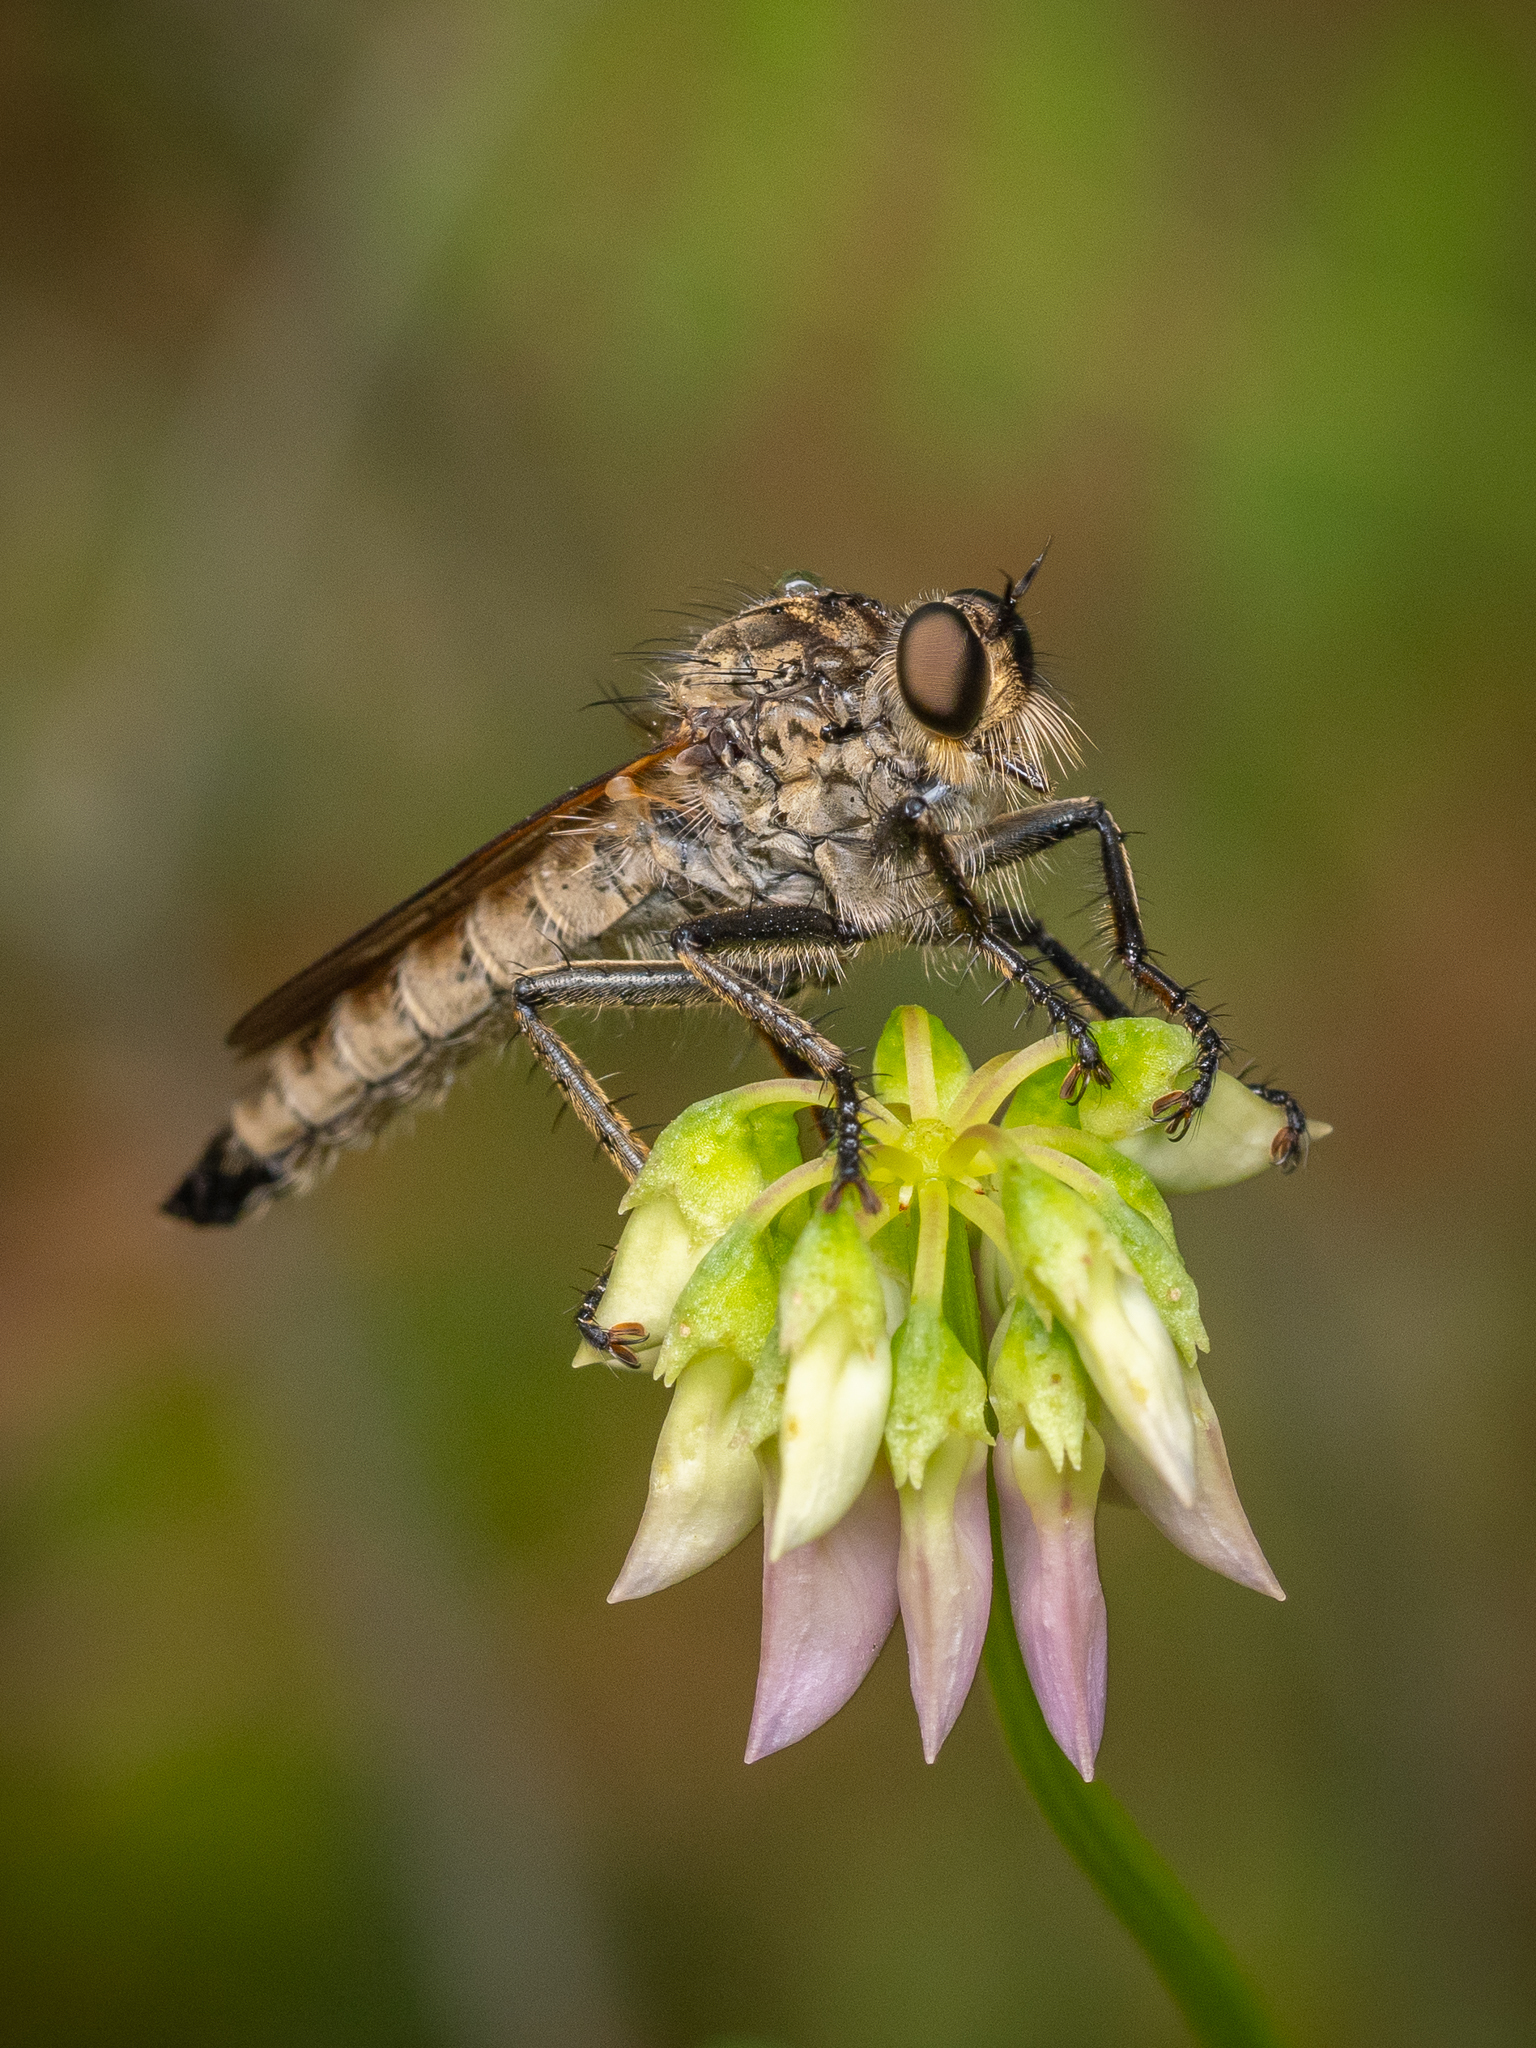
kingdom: Animalia
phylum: Arthropoda
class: Insecta
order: Diptera
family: Asilidae
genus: Eutolmus
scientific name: Eutolmus rufibarbis
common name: Golden-tabbed robberfly
